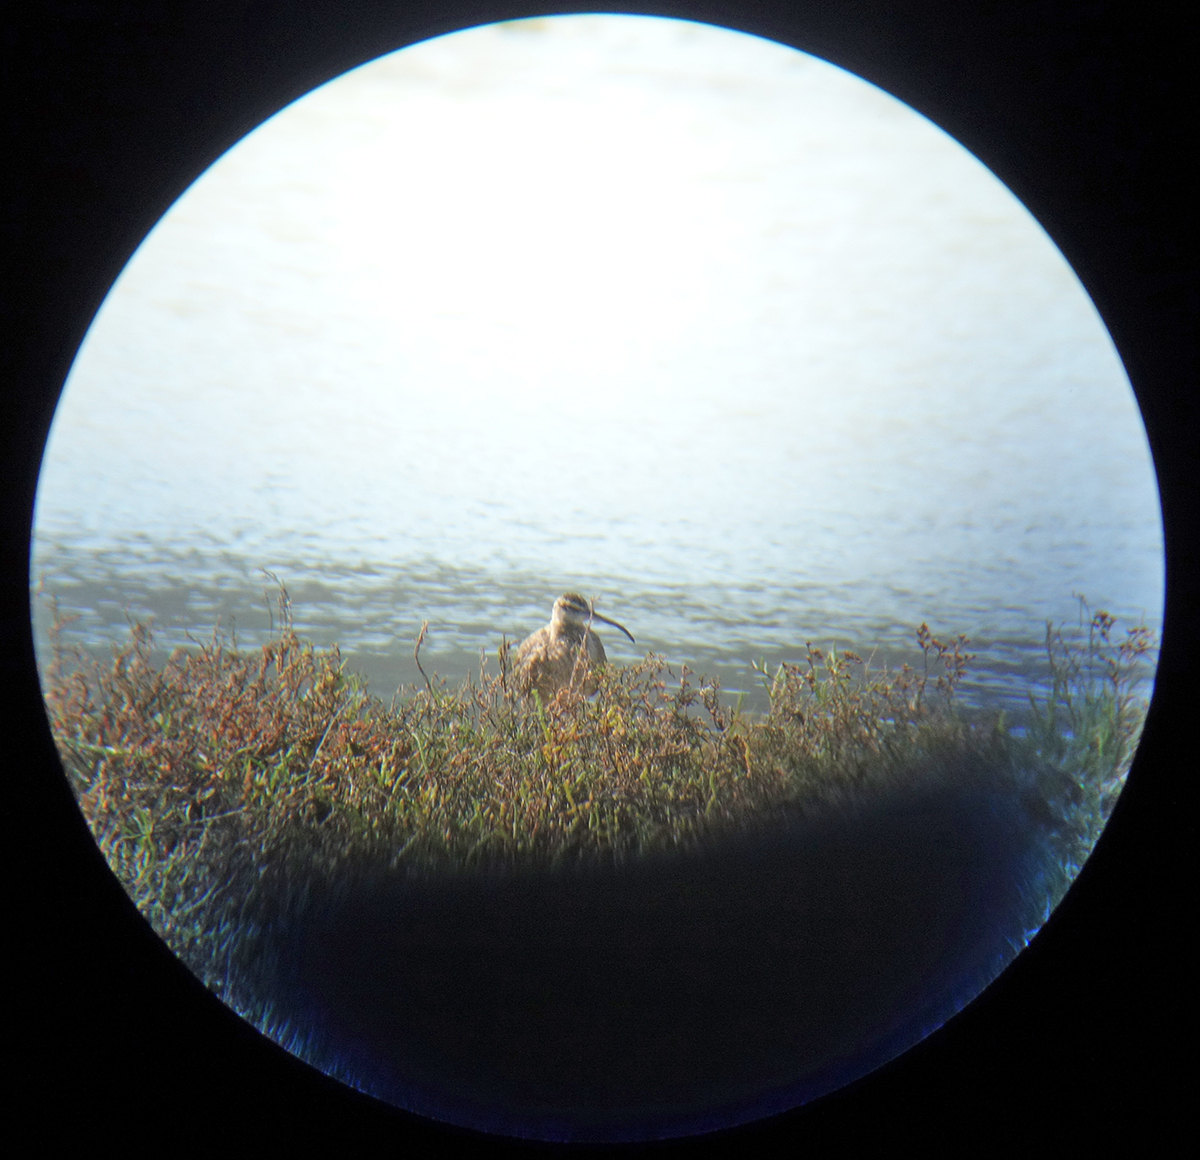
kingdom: Animalia
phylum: Chordata
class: Aves
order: Charadriiformes
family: Scolopacidae
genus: Numenius
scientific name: Numenius phaeopus
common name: Whimbrel
